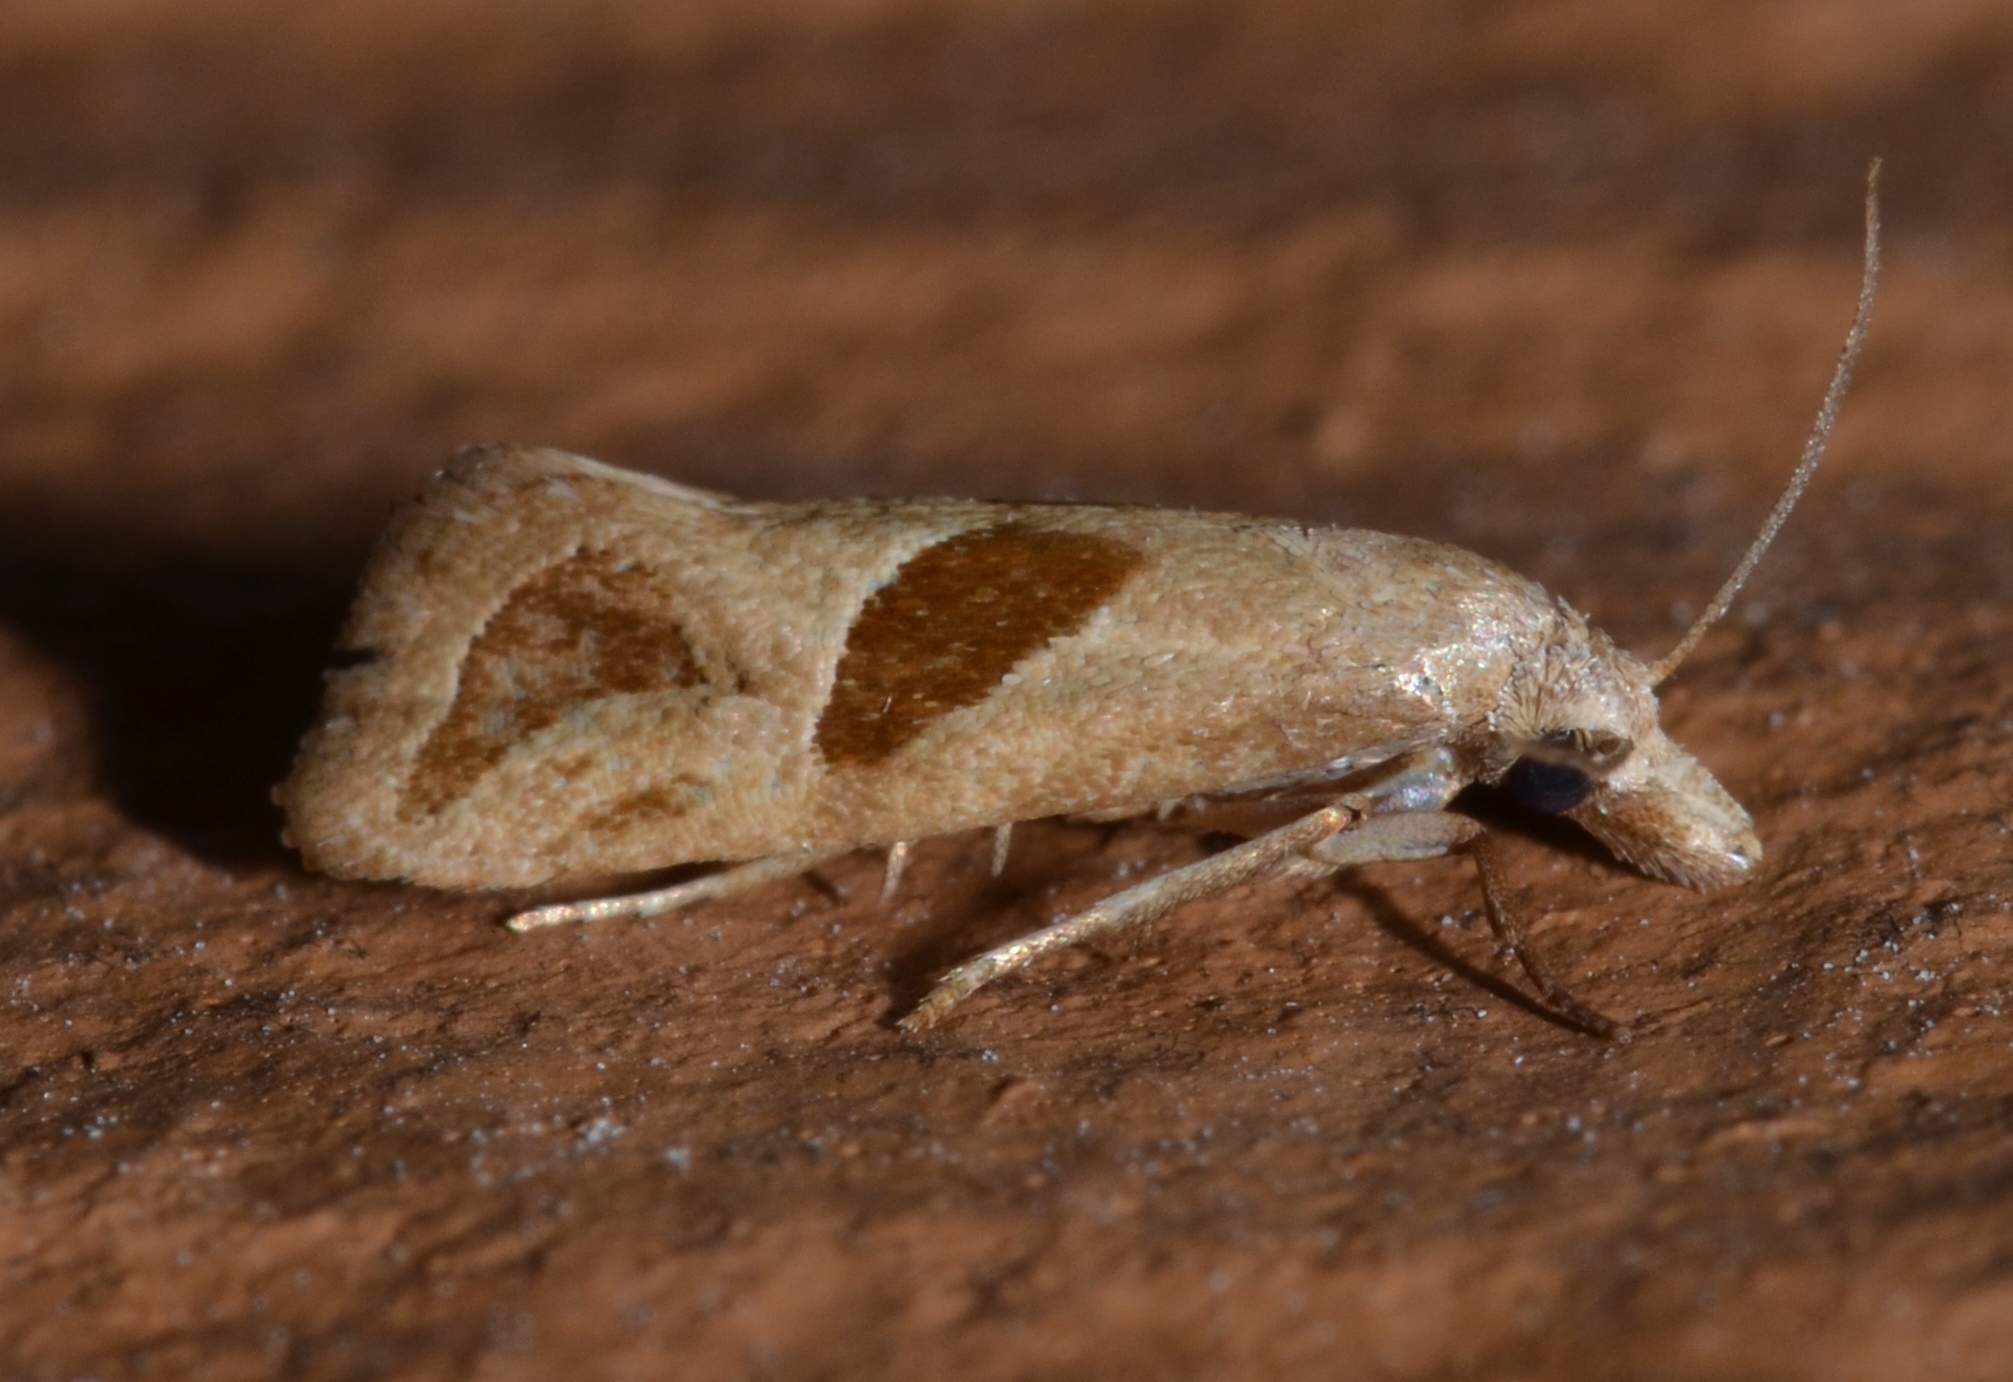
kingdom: Animalia
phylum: Arthropoda
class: Insecta
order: Lepidoptera
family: Tortricidae
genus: Eugnosta
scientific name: Eugnosta bimaculana
